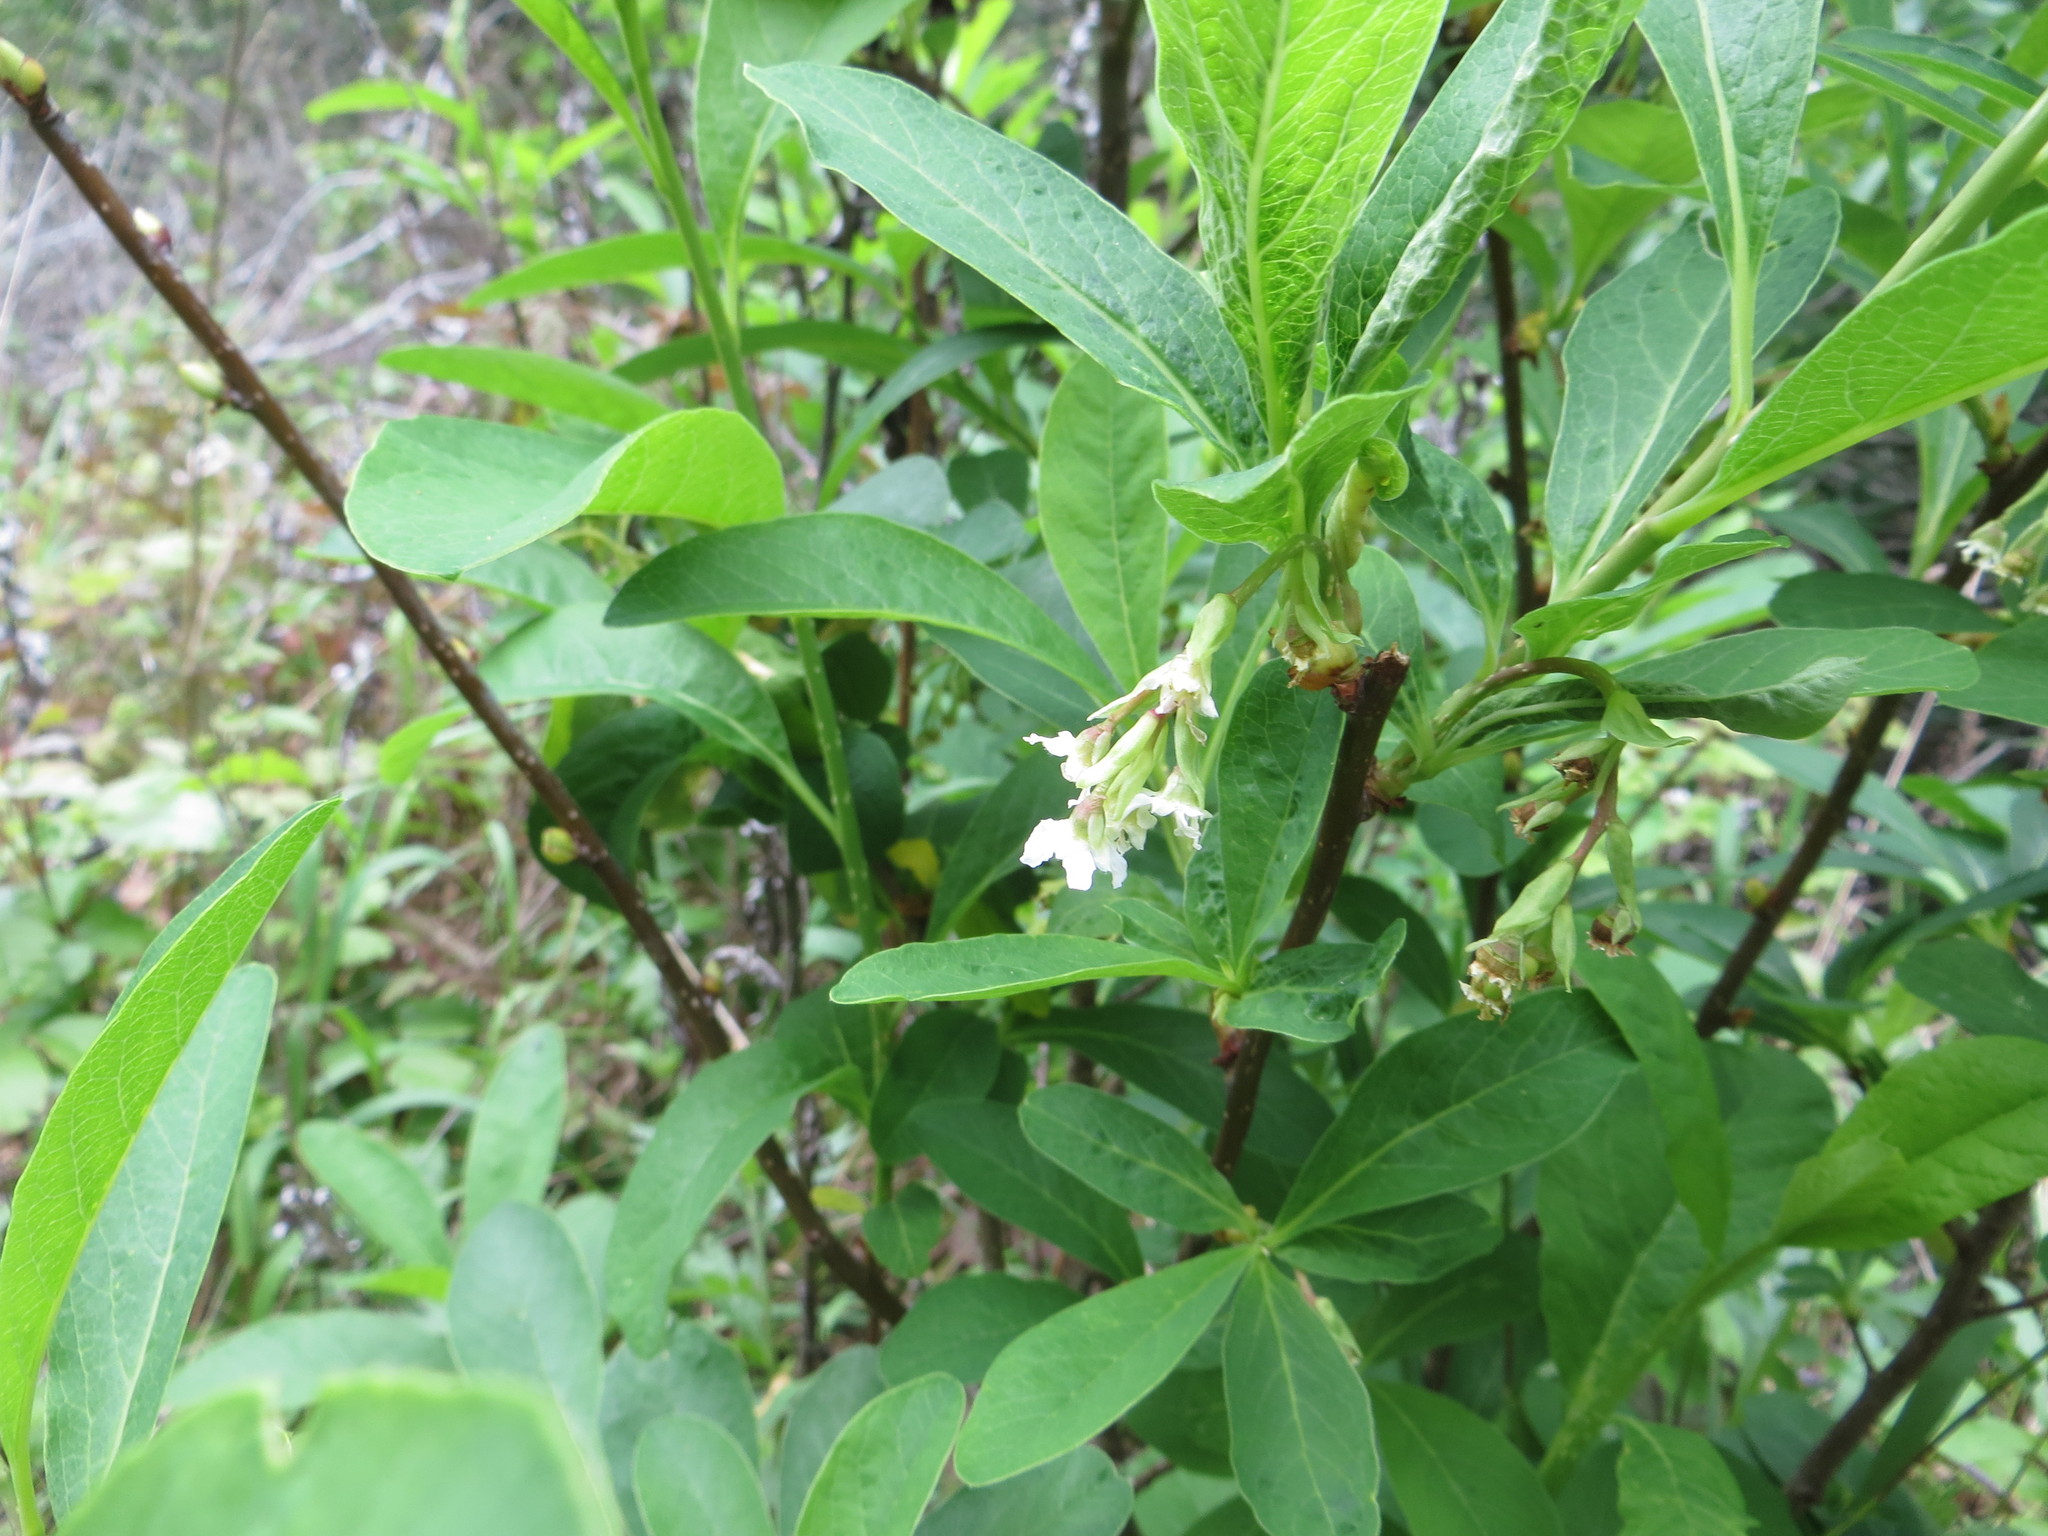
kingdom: Plantae
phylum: Tracheophyta
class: Magnoliopsida
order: Rosales
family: Rosaceae
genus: Oemleria
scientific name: Oemleria cerasiformis
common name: Osoberry
